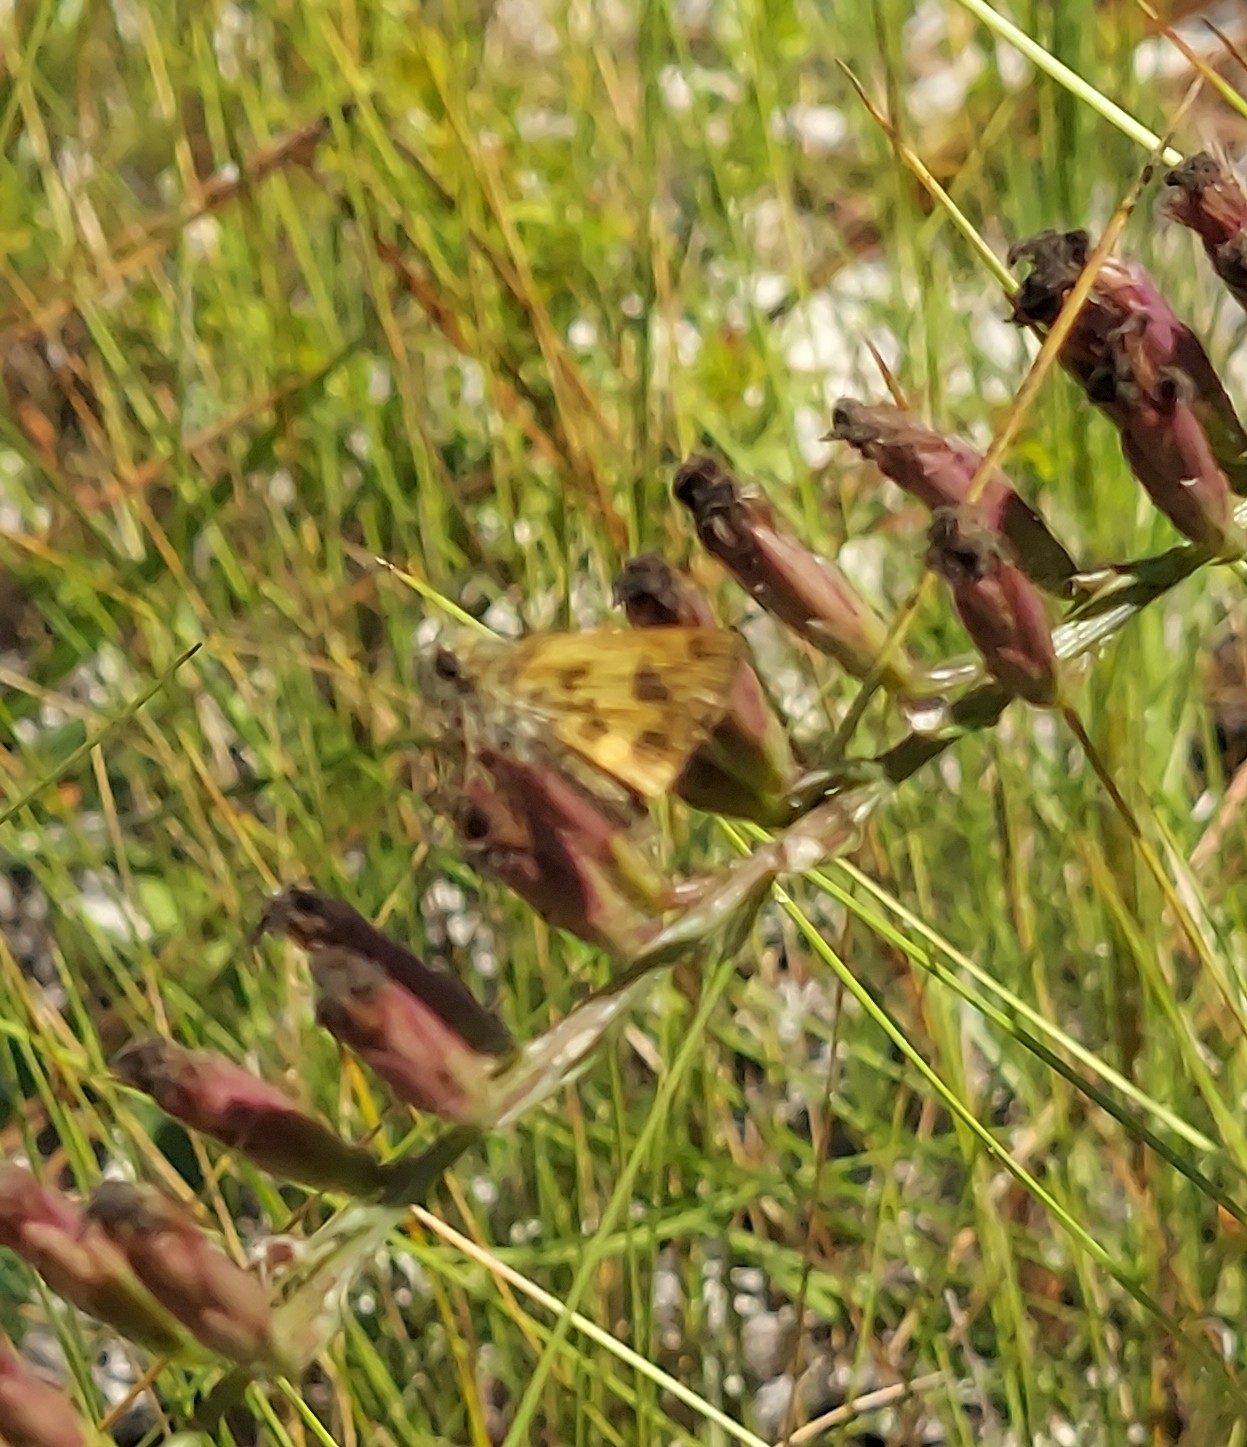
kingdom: Animalia
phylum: Arthropoda
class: Insecta
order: Lepidoptera
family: Hesperiidae
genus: Polites
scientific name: Polites vibex
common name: Whirlabout
